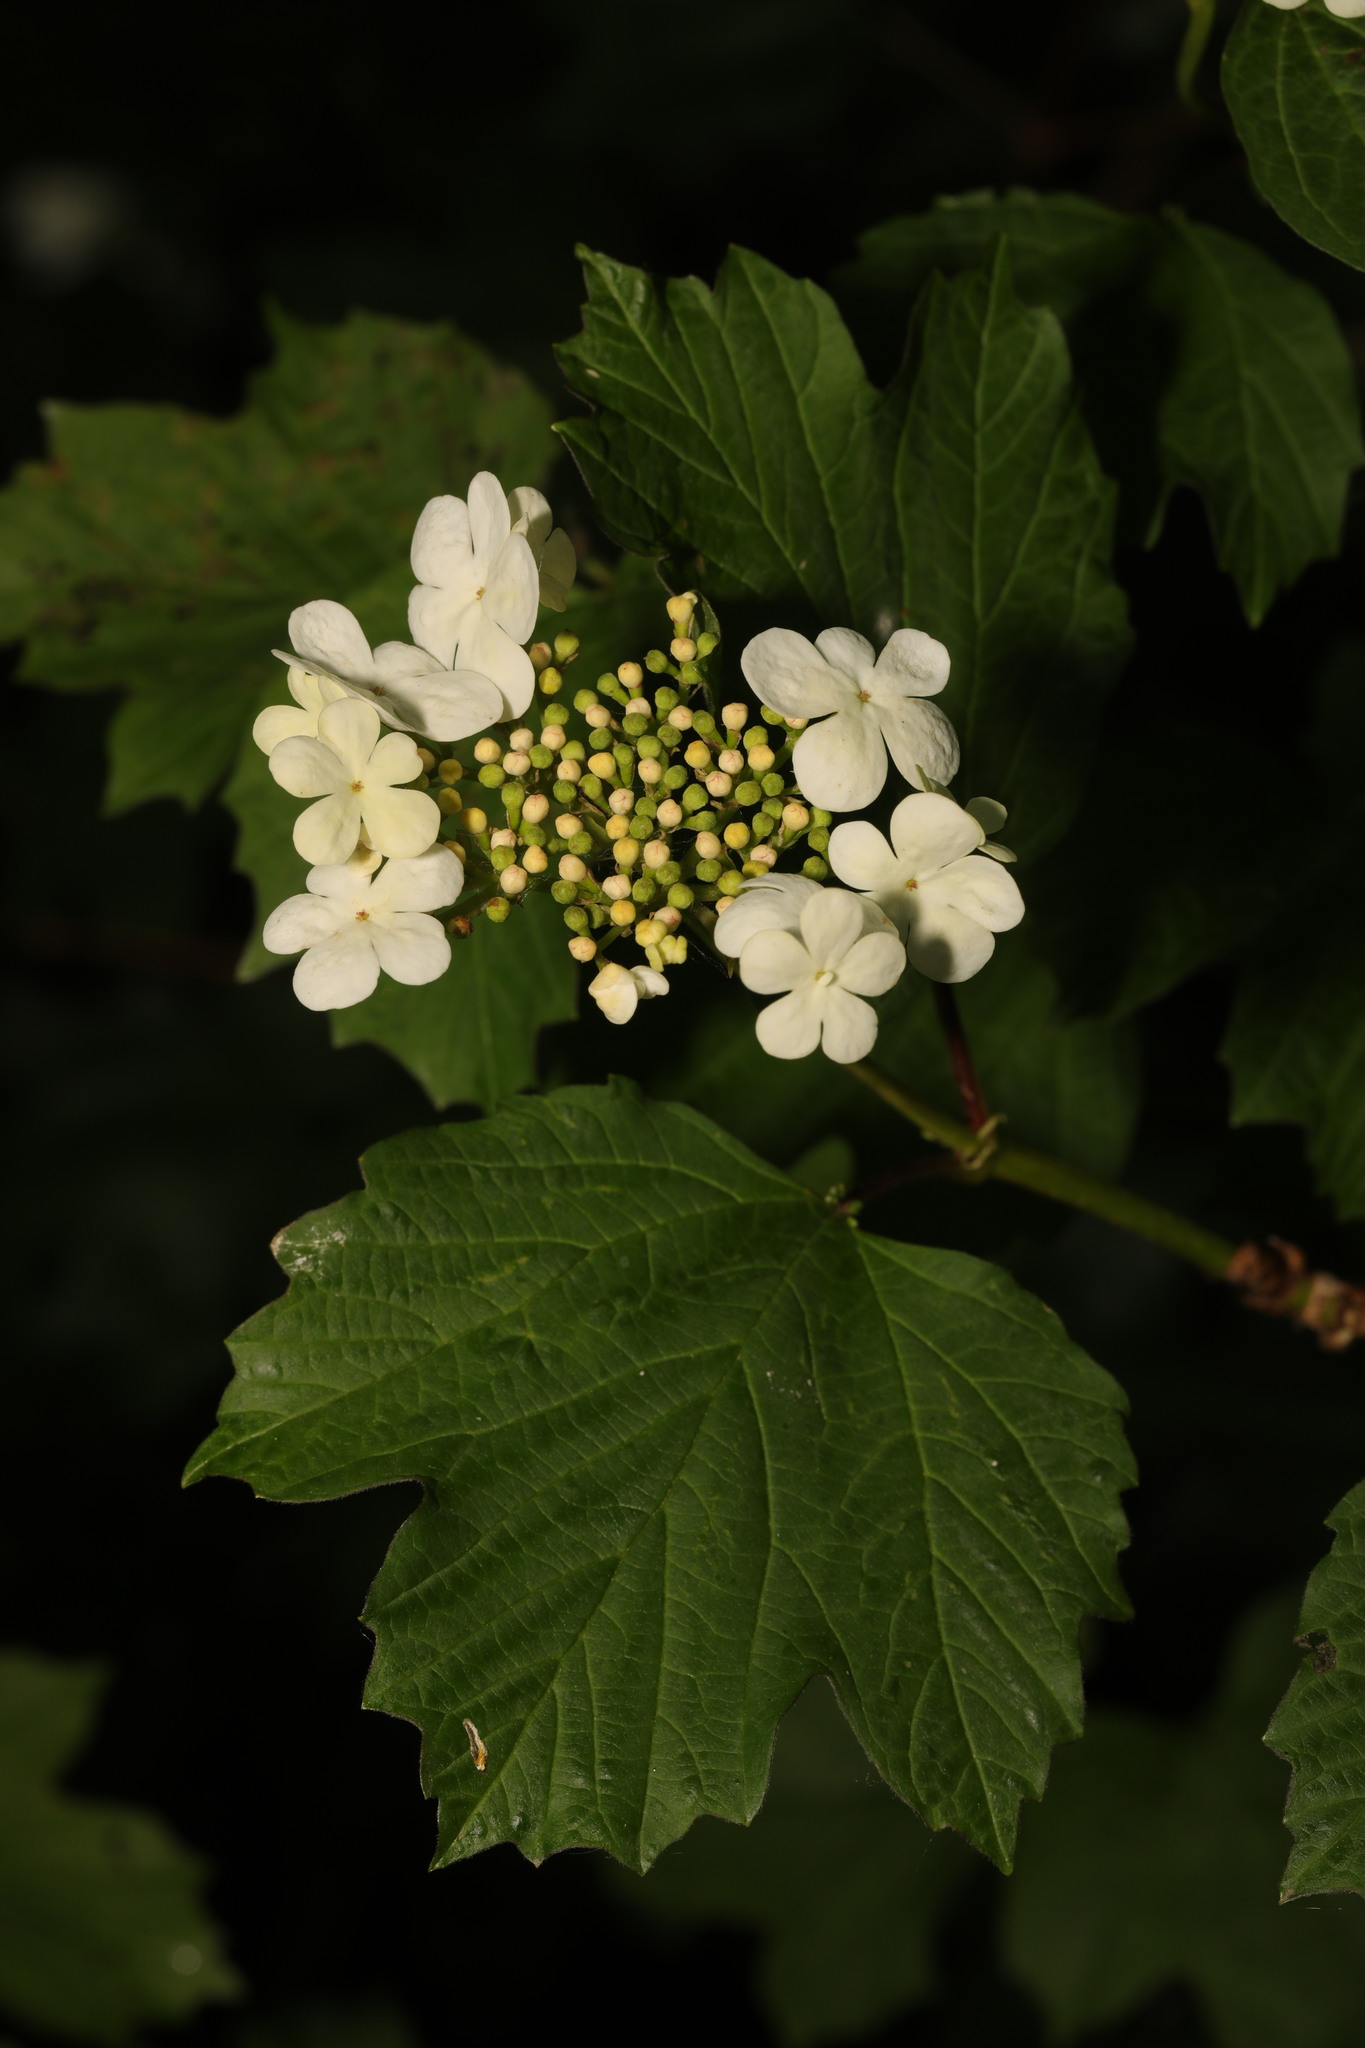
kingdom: Plantae
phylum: Tracheophyta
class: Magnoliopsida
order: Dipsacales
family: Viburnaceae
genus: Viburnum
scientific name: Viburnum opulus
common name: Guelder-rose
